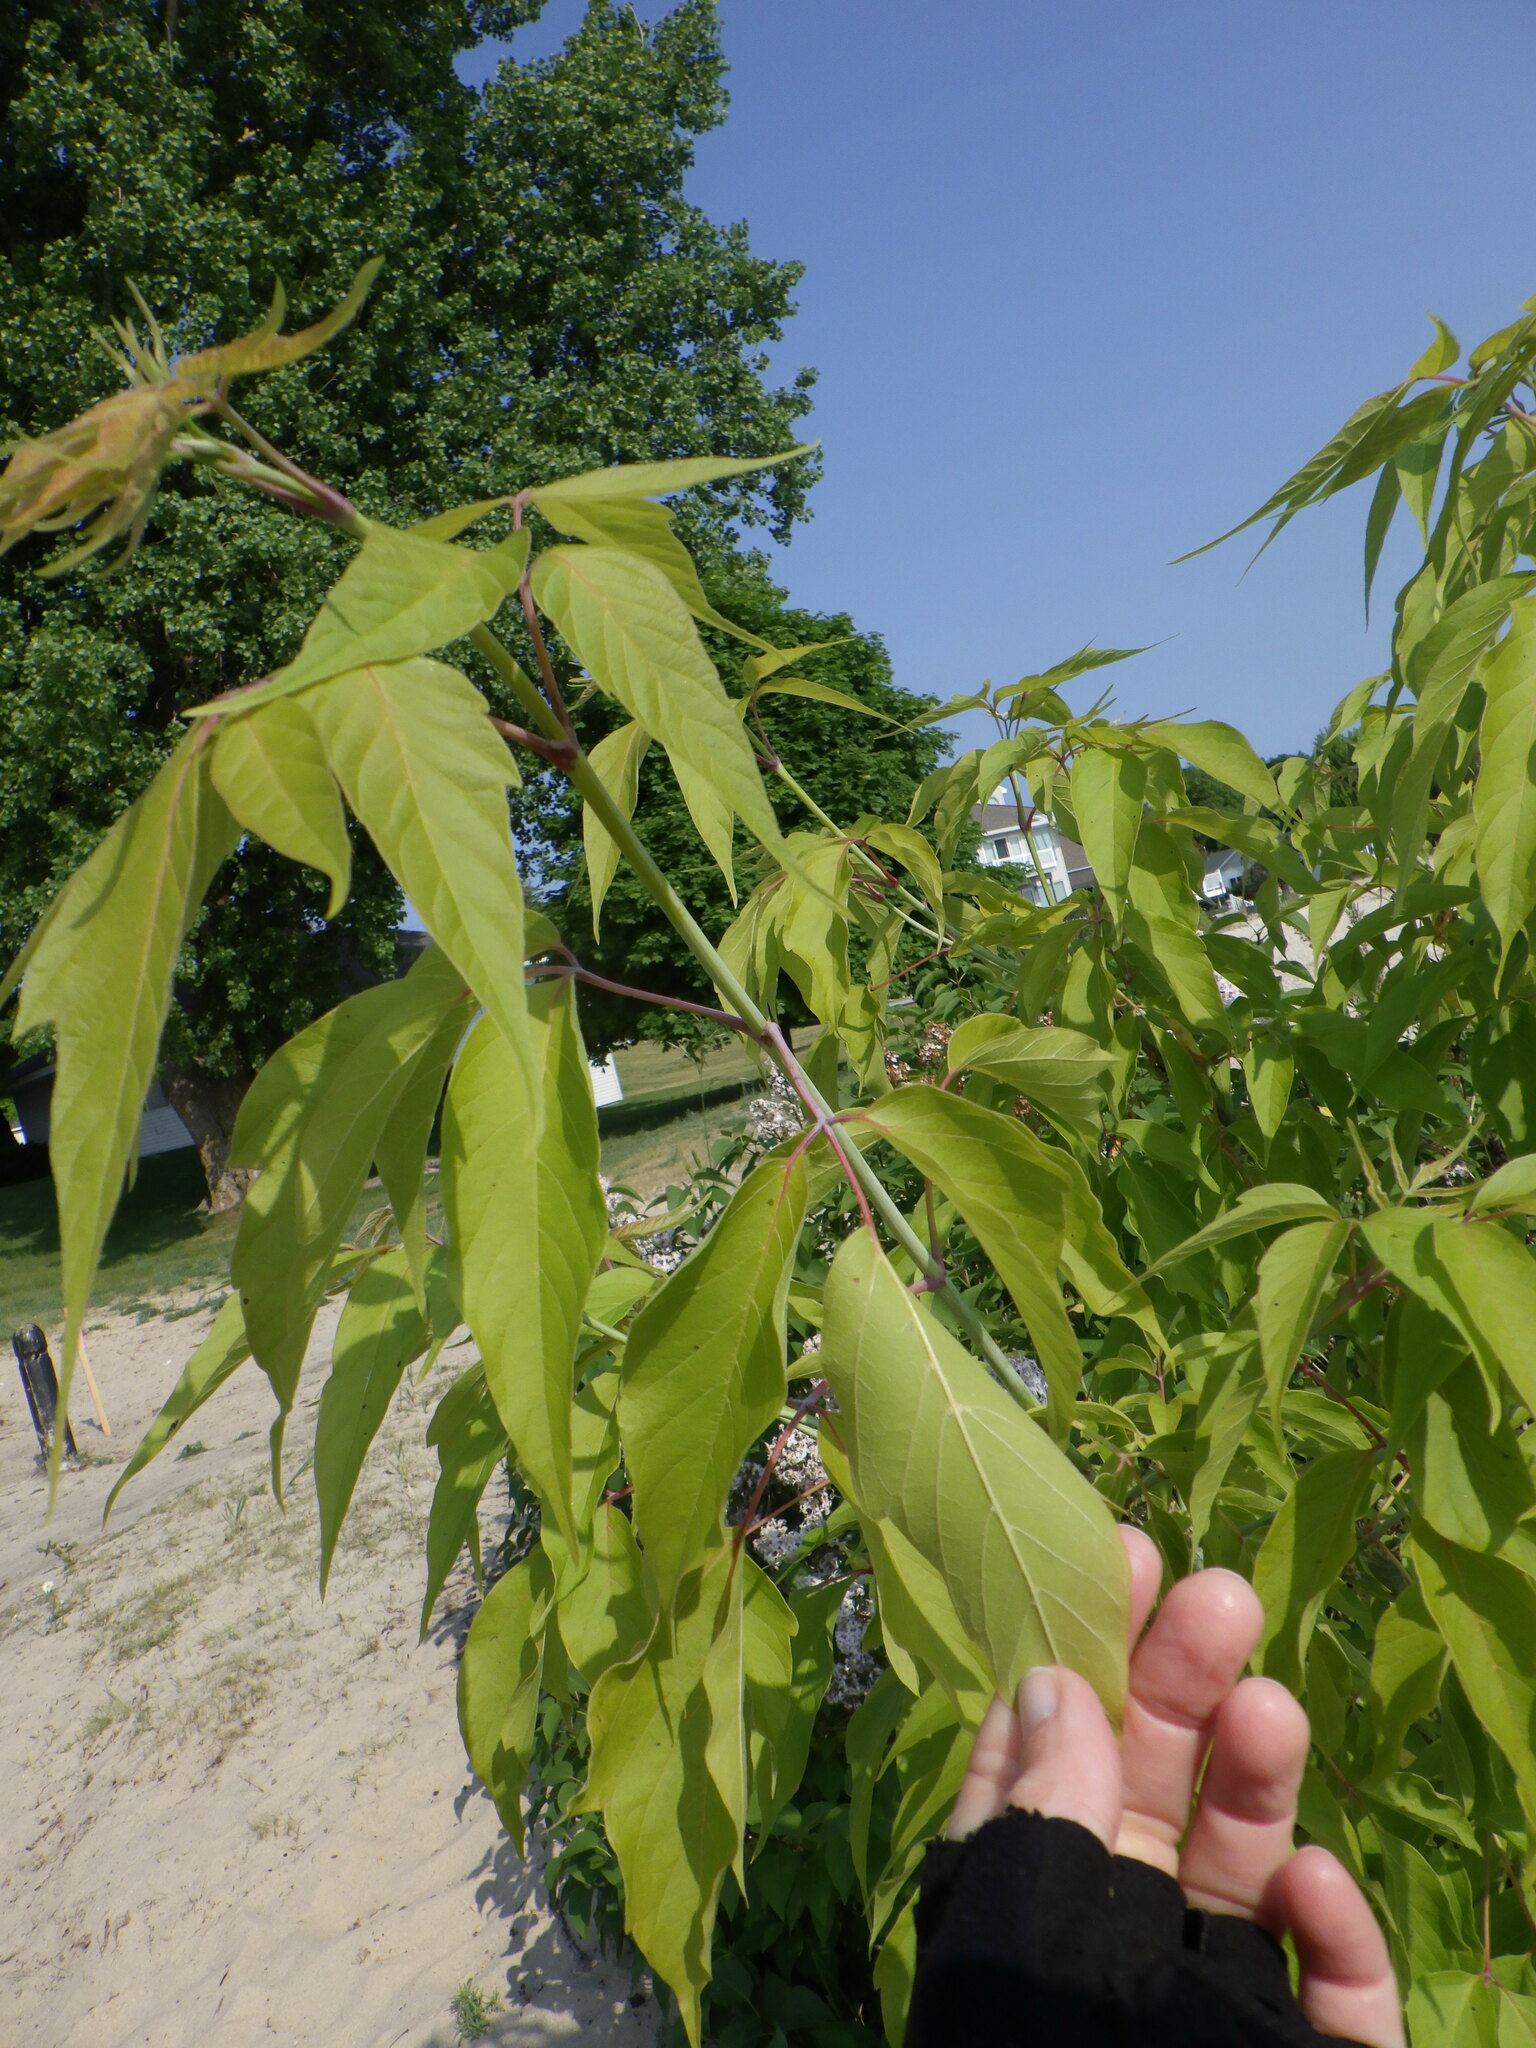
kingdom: Plantae
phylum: Tracheophyta
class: Magnoliopsida
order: Sapindales
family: Sapindaceae
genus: Acer
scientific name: Acer negundo
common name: Ashleaf maple
